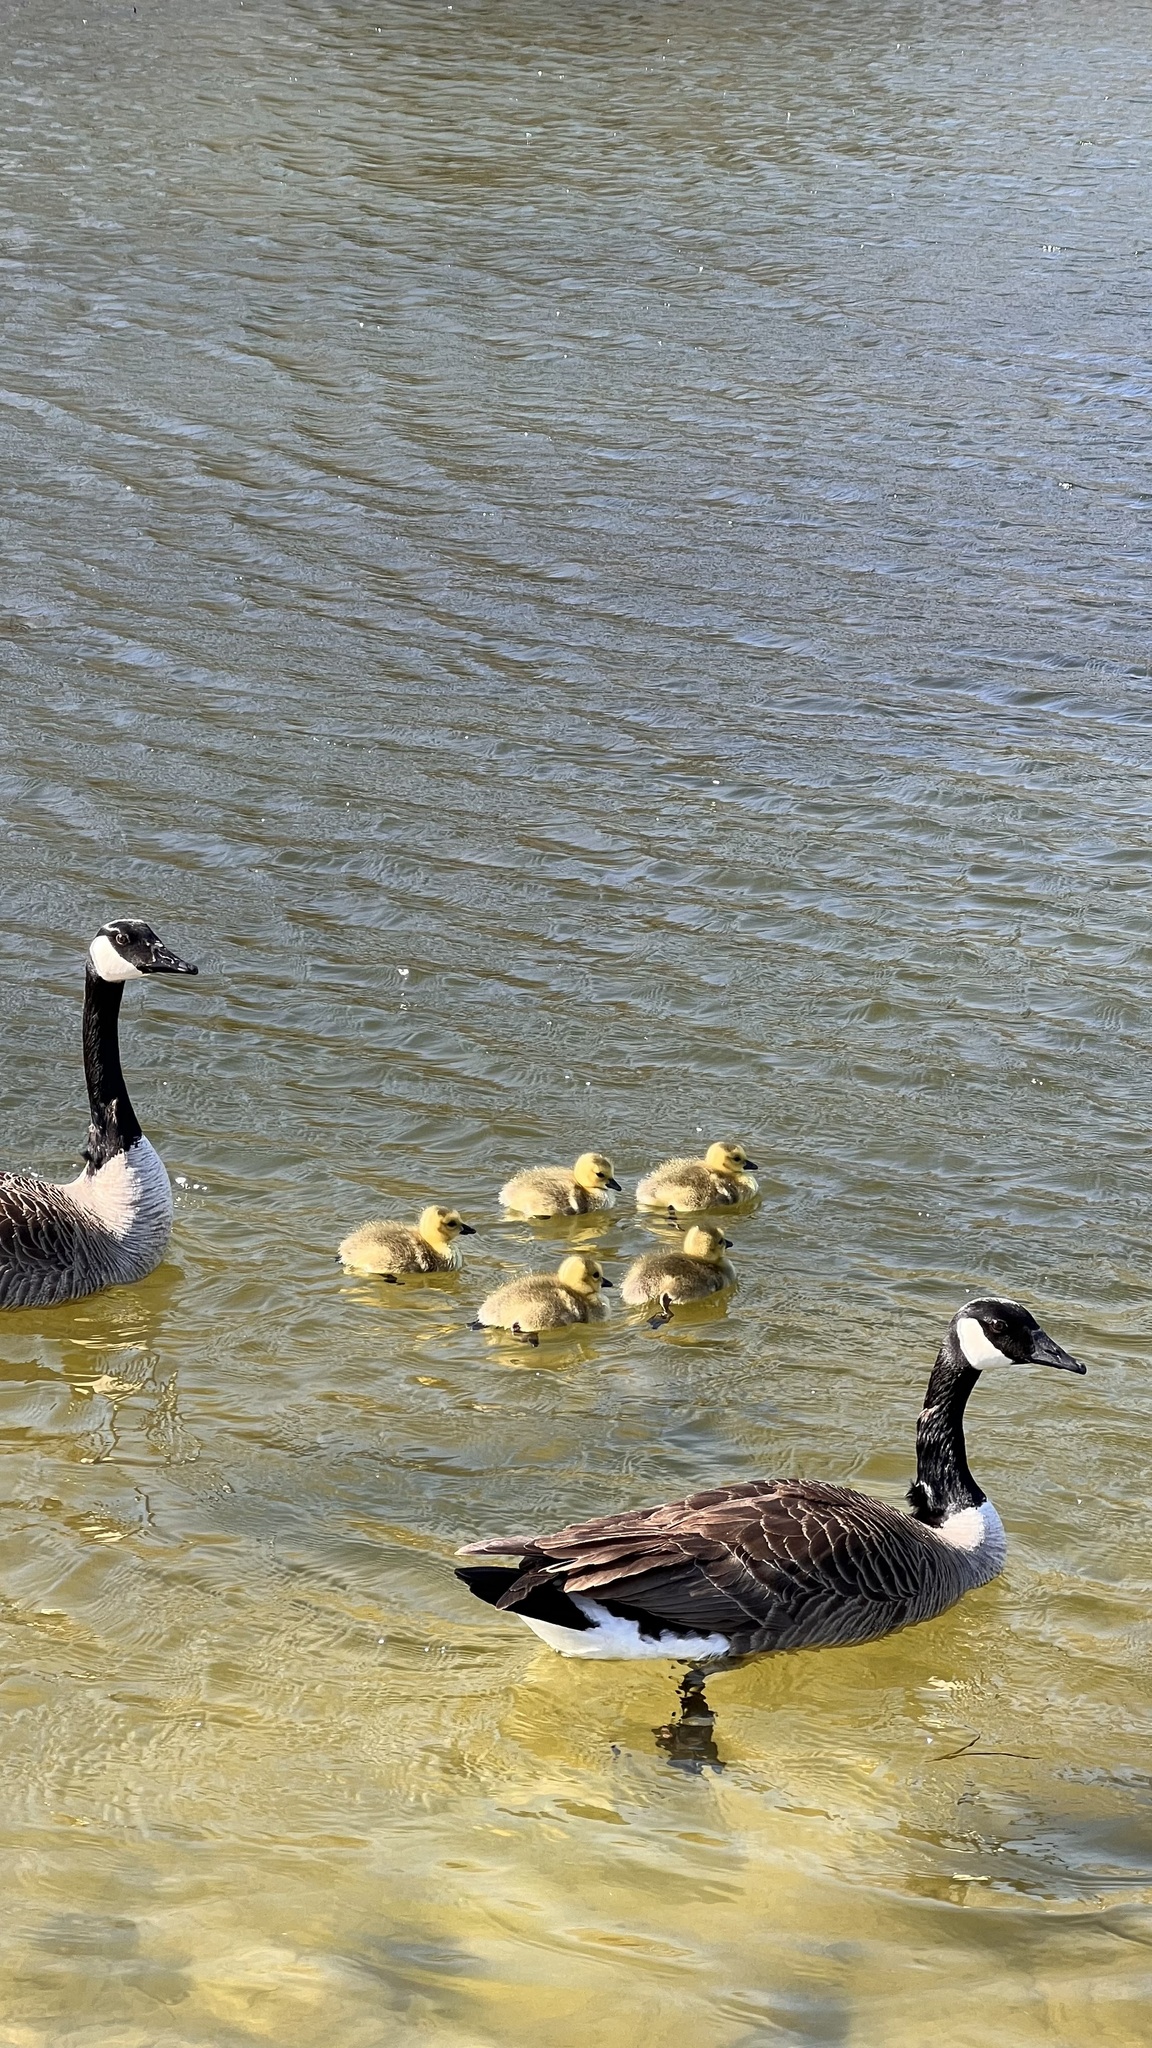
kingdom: Animalia
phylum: Chordata
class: Aves
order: Anseriformes
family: Anatidae
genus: Branta
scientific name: Branta canadensis
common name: Canada goose
